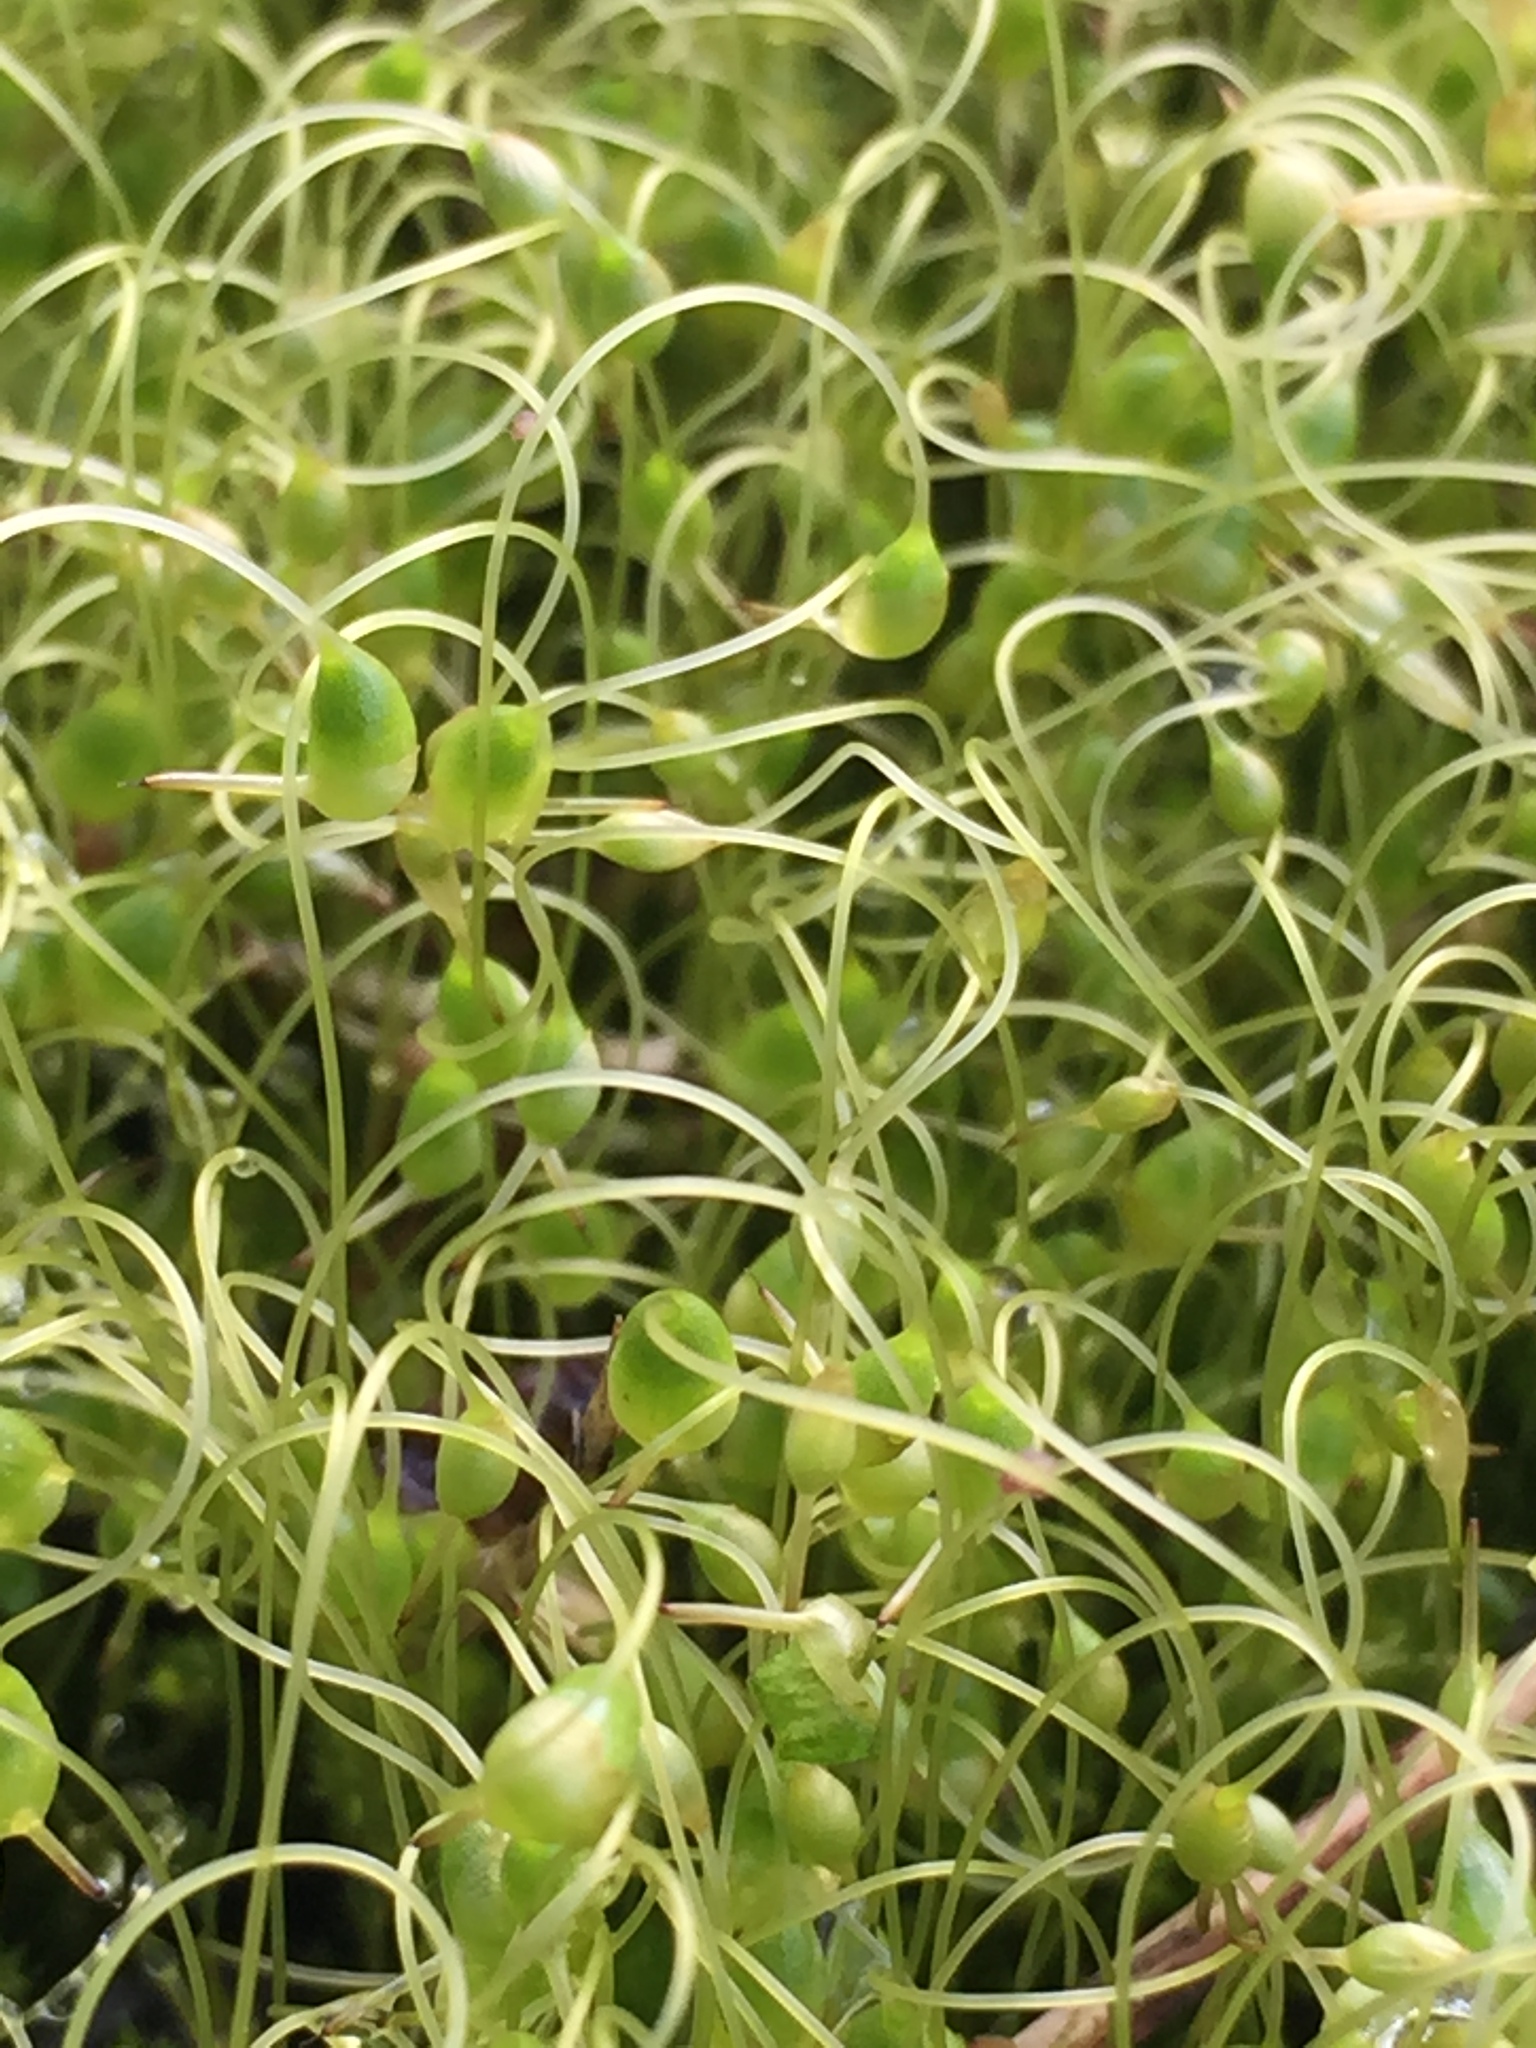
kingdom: Plantae
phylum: Bryophyta
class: Bryopsida
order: Funariales
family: Funariaceae
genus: Funaria
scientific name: Funaria hygrometrica
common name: Common cord moss
